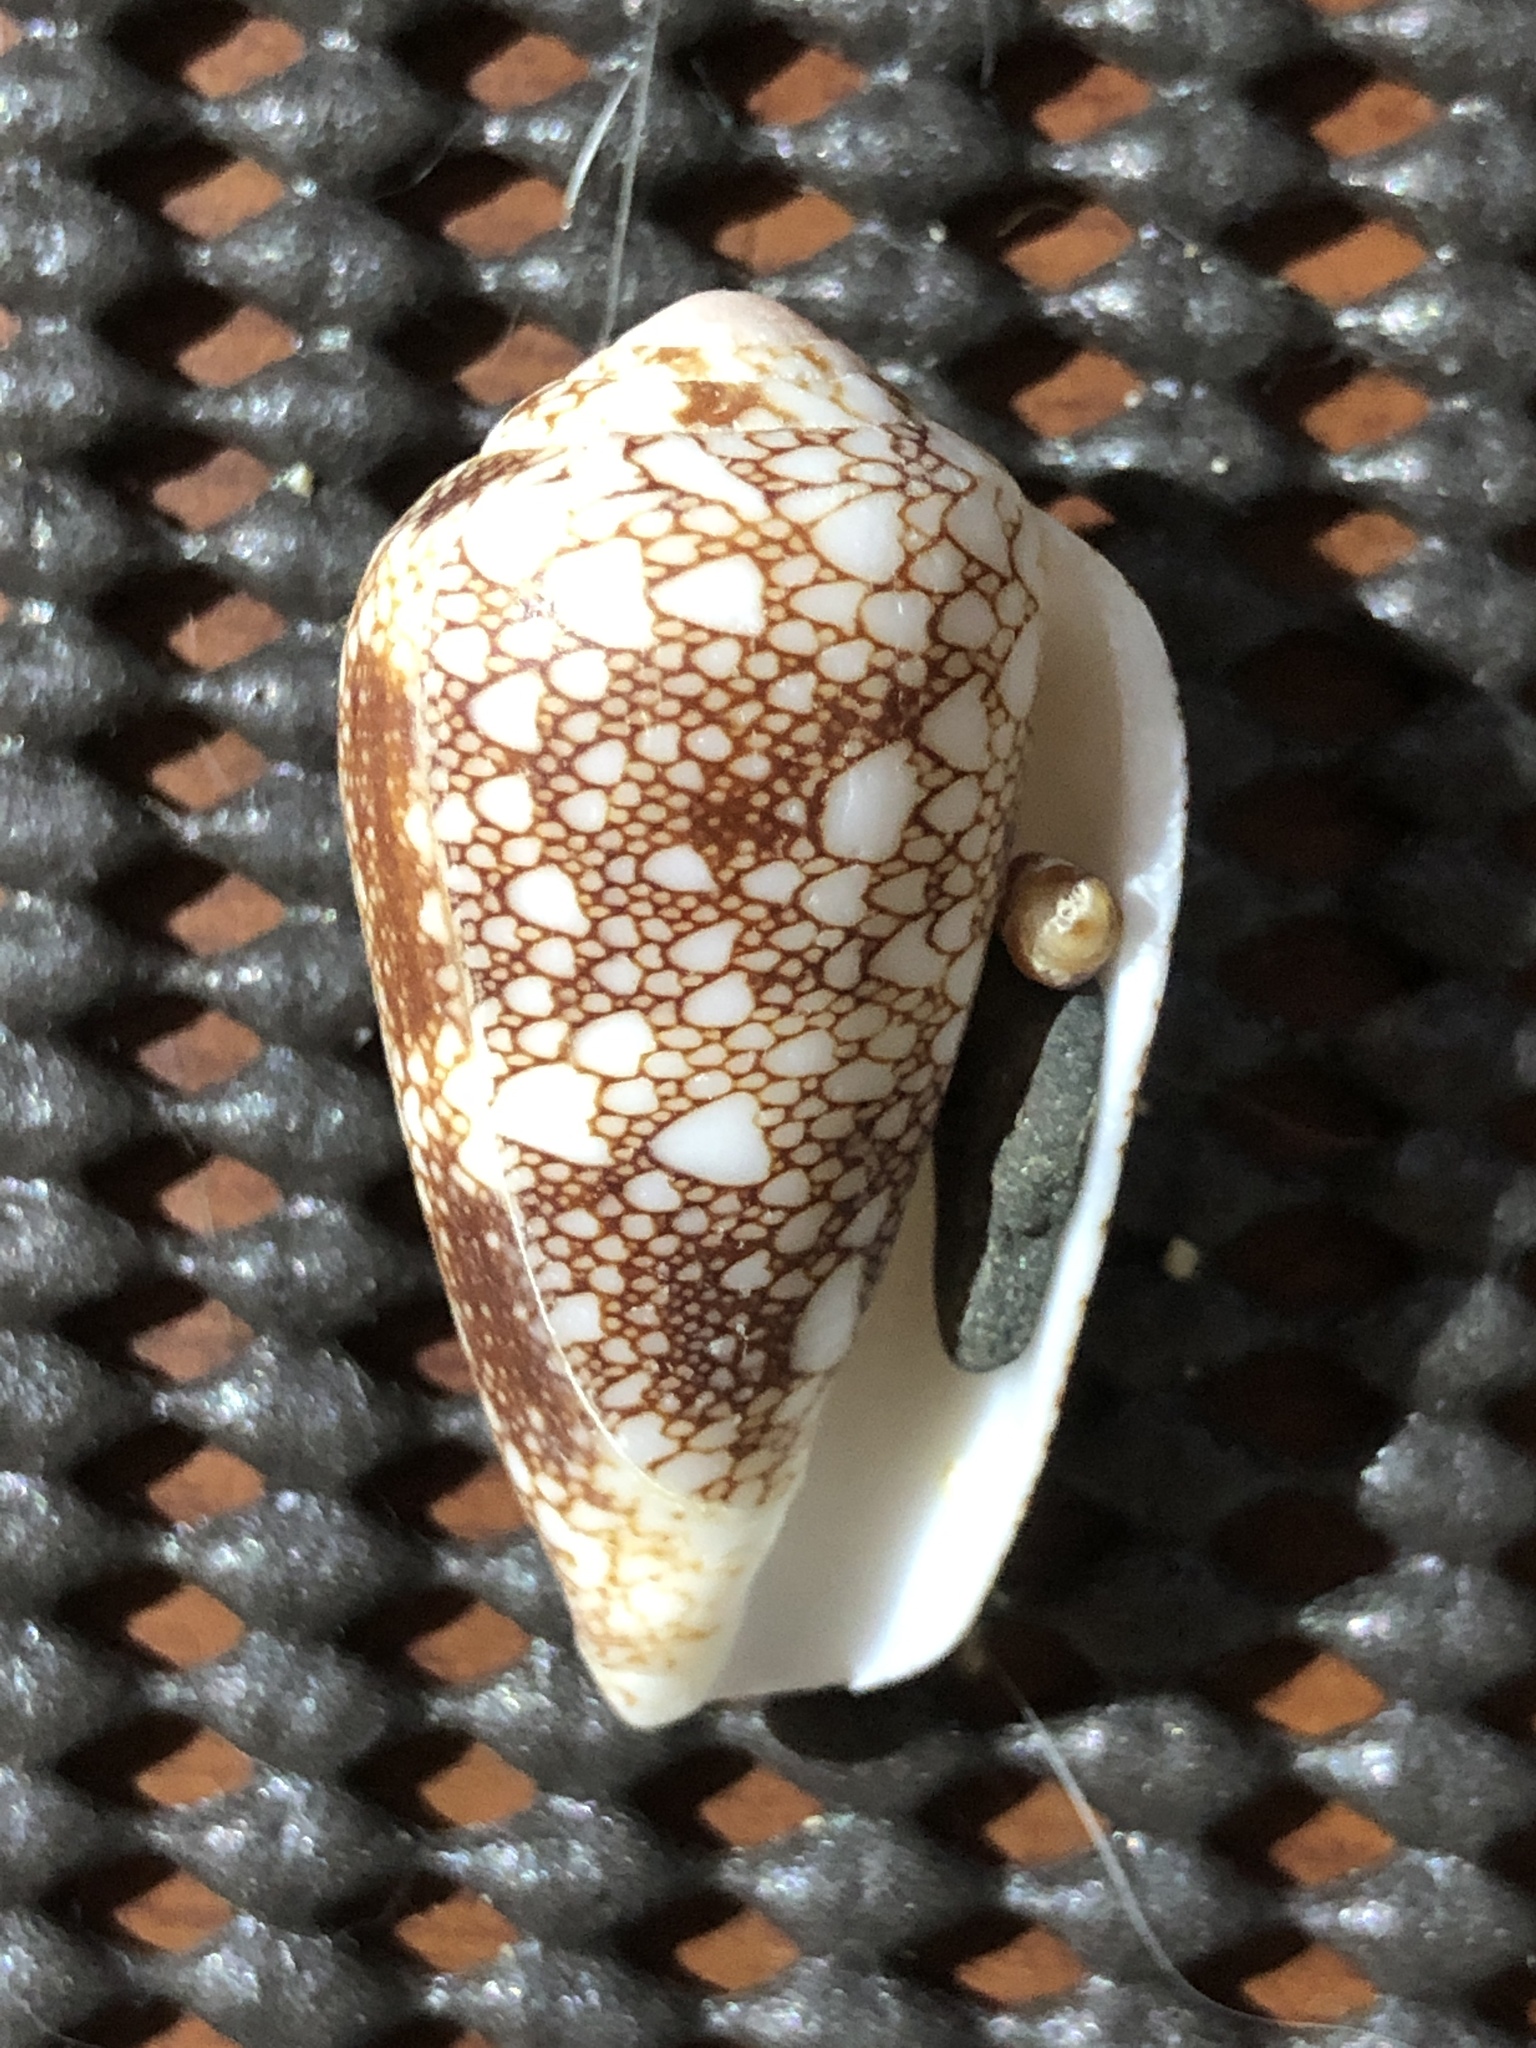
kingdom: Animalia
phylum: Mollusca
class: Gastropoda
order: Neogastropoda
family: Conidae
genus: Conus
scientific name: Conus omaria
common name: Omaria cone
